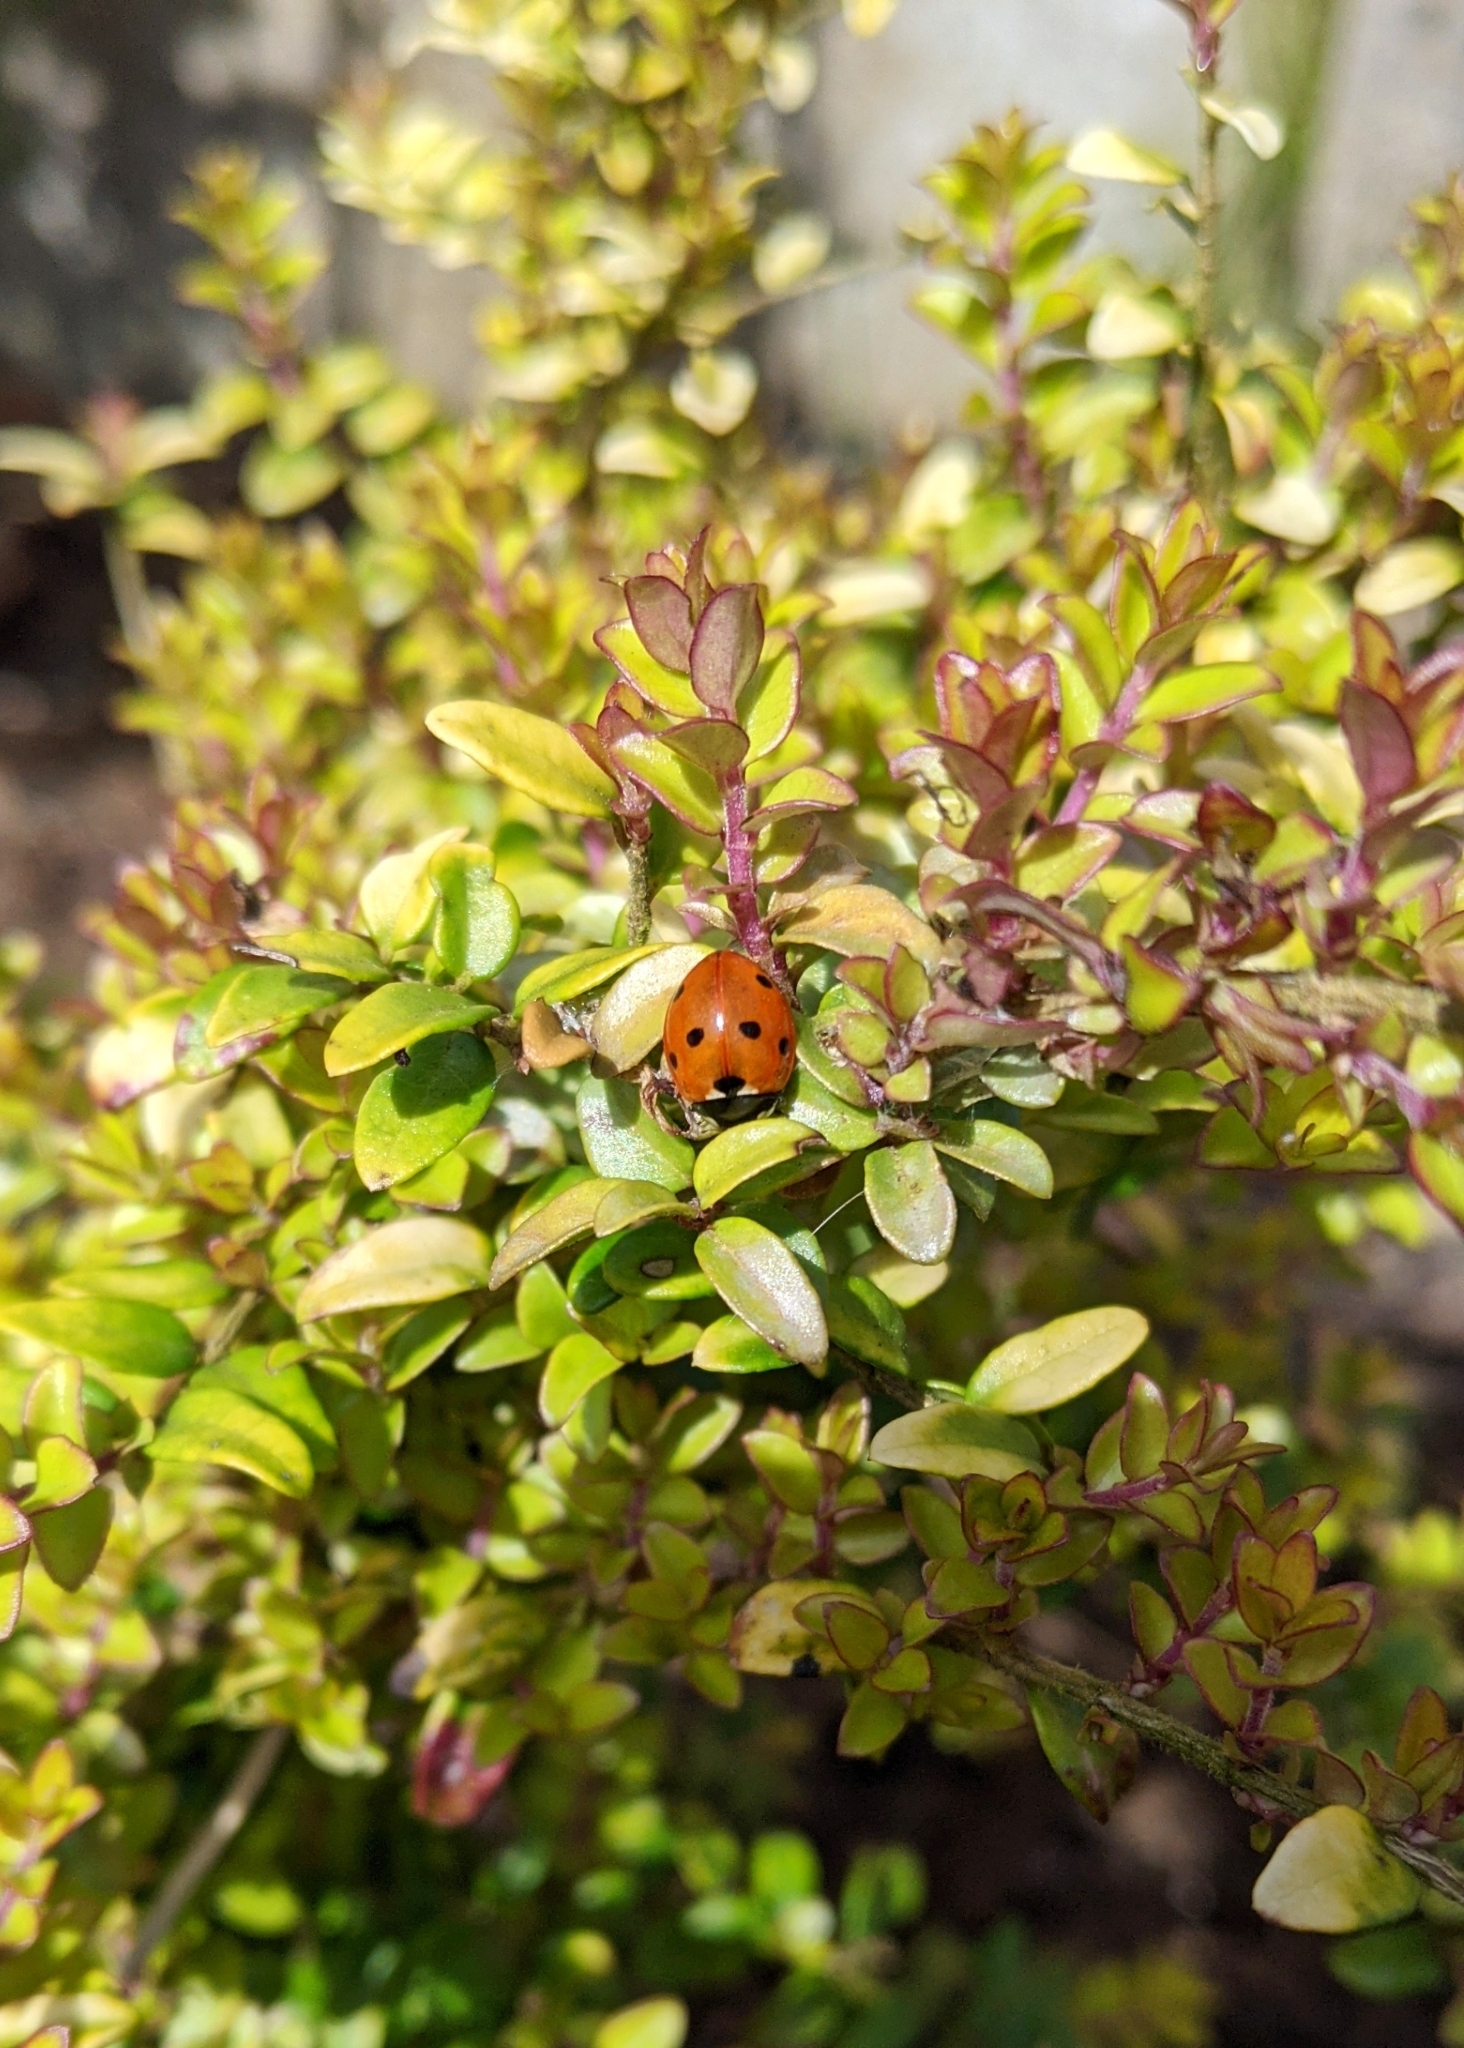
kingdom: Animalia
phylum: Arthropoda
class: Insecta
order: Coleoptera
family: Coccinellidae
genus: Coccinella
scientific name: Coccinella septempunctata
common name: Sevenspotted lady beetle
